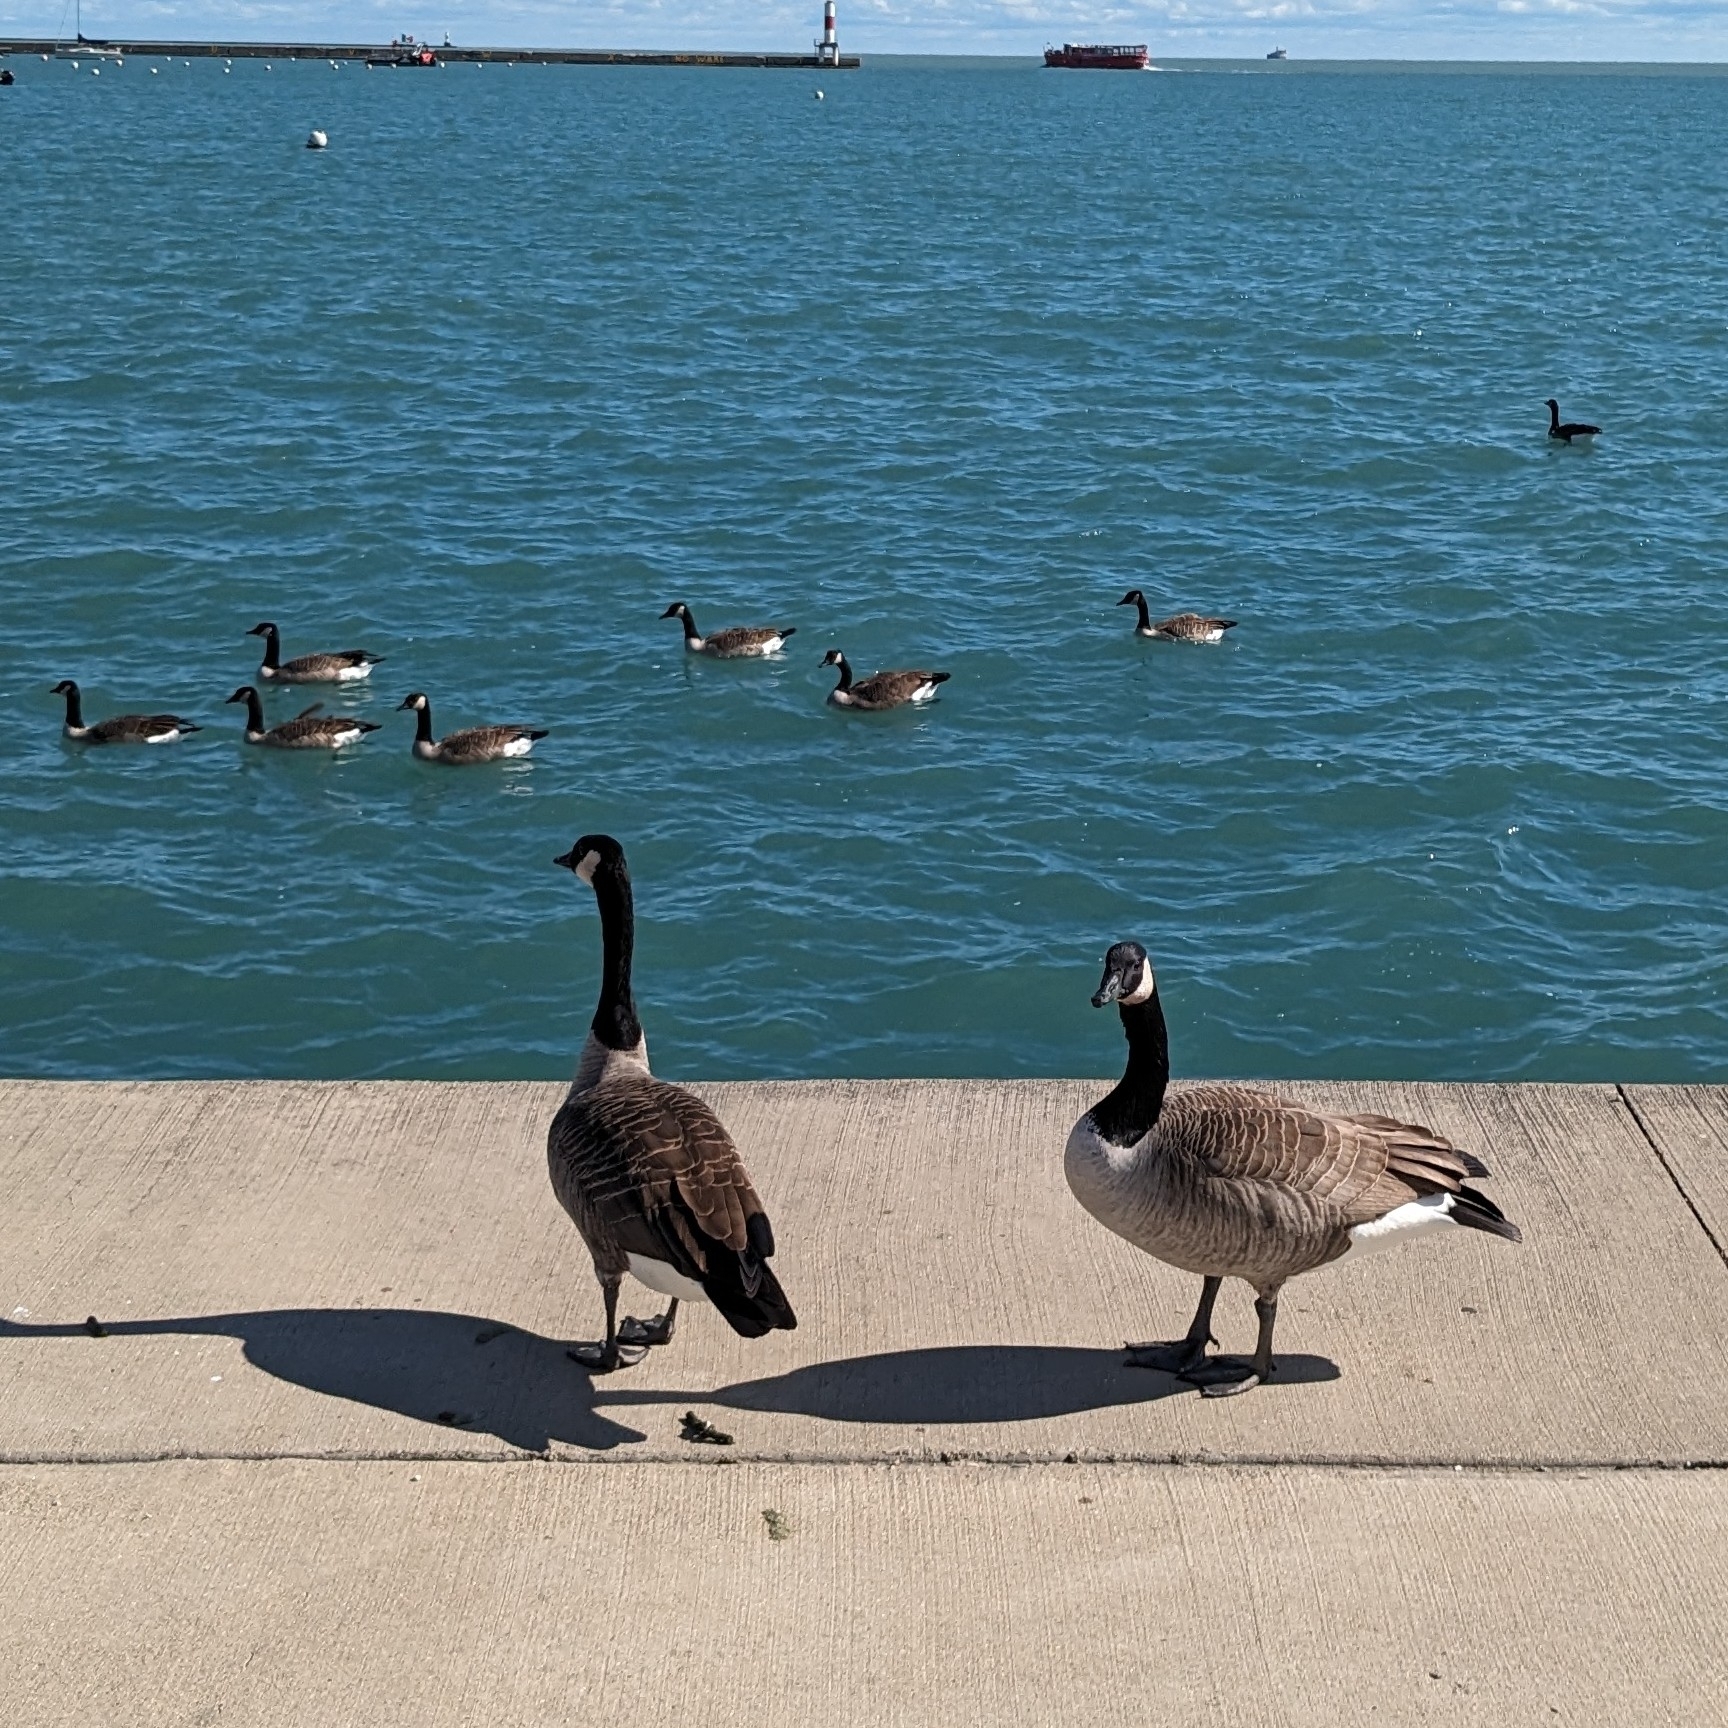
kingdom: Animalia
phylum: Chordata
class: Aves
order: Anseriformes
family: Anatidae
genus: Branta
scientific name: Branta canadensis
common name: Canada goose
